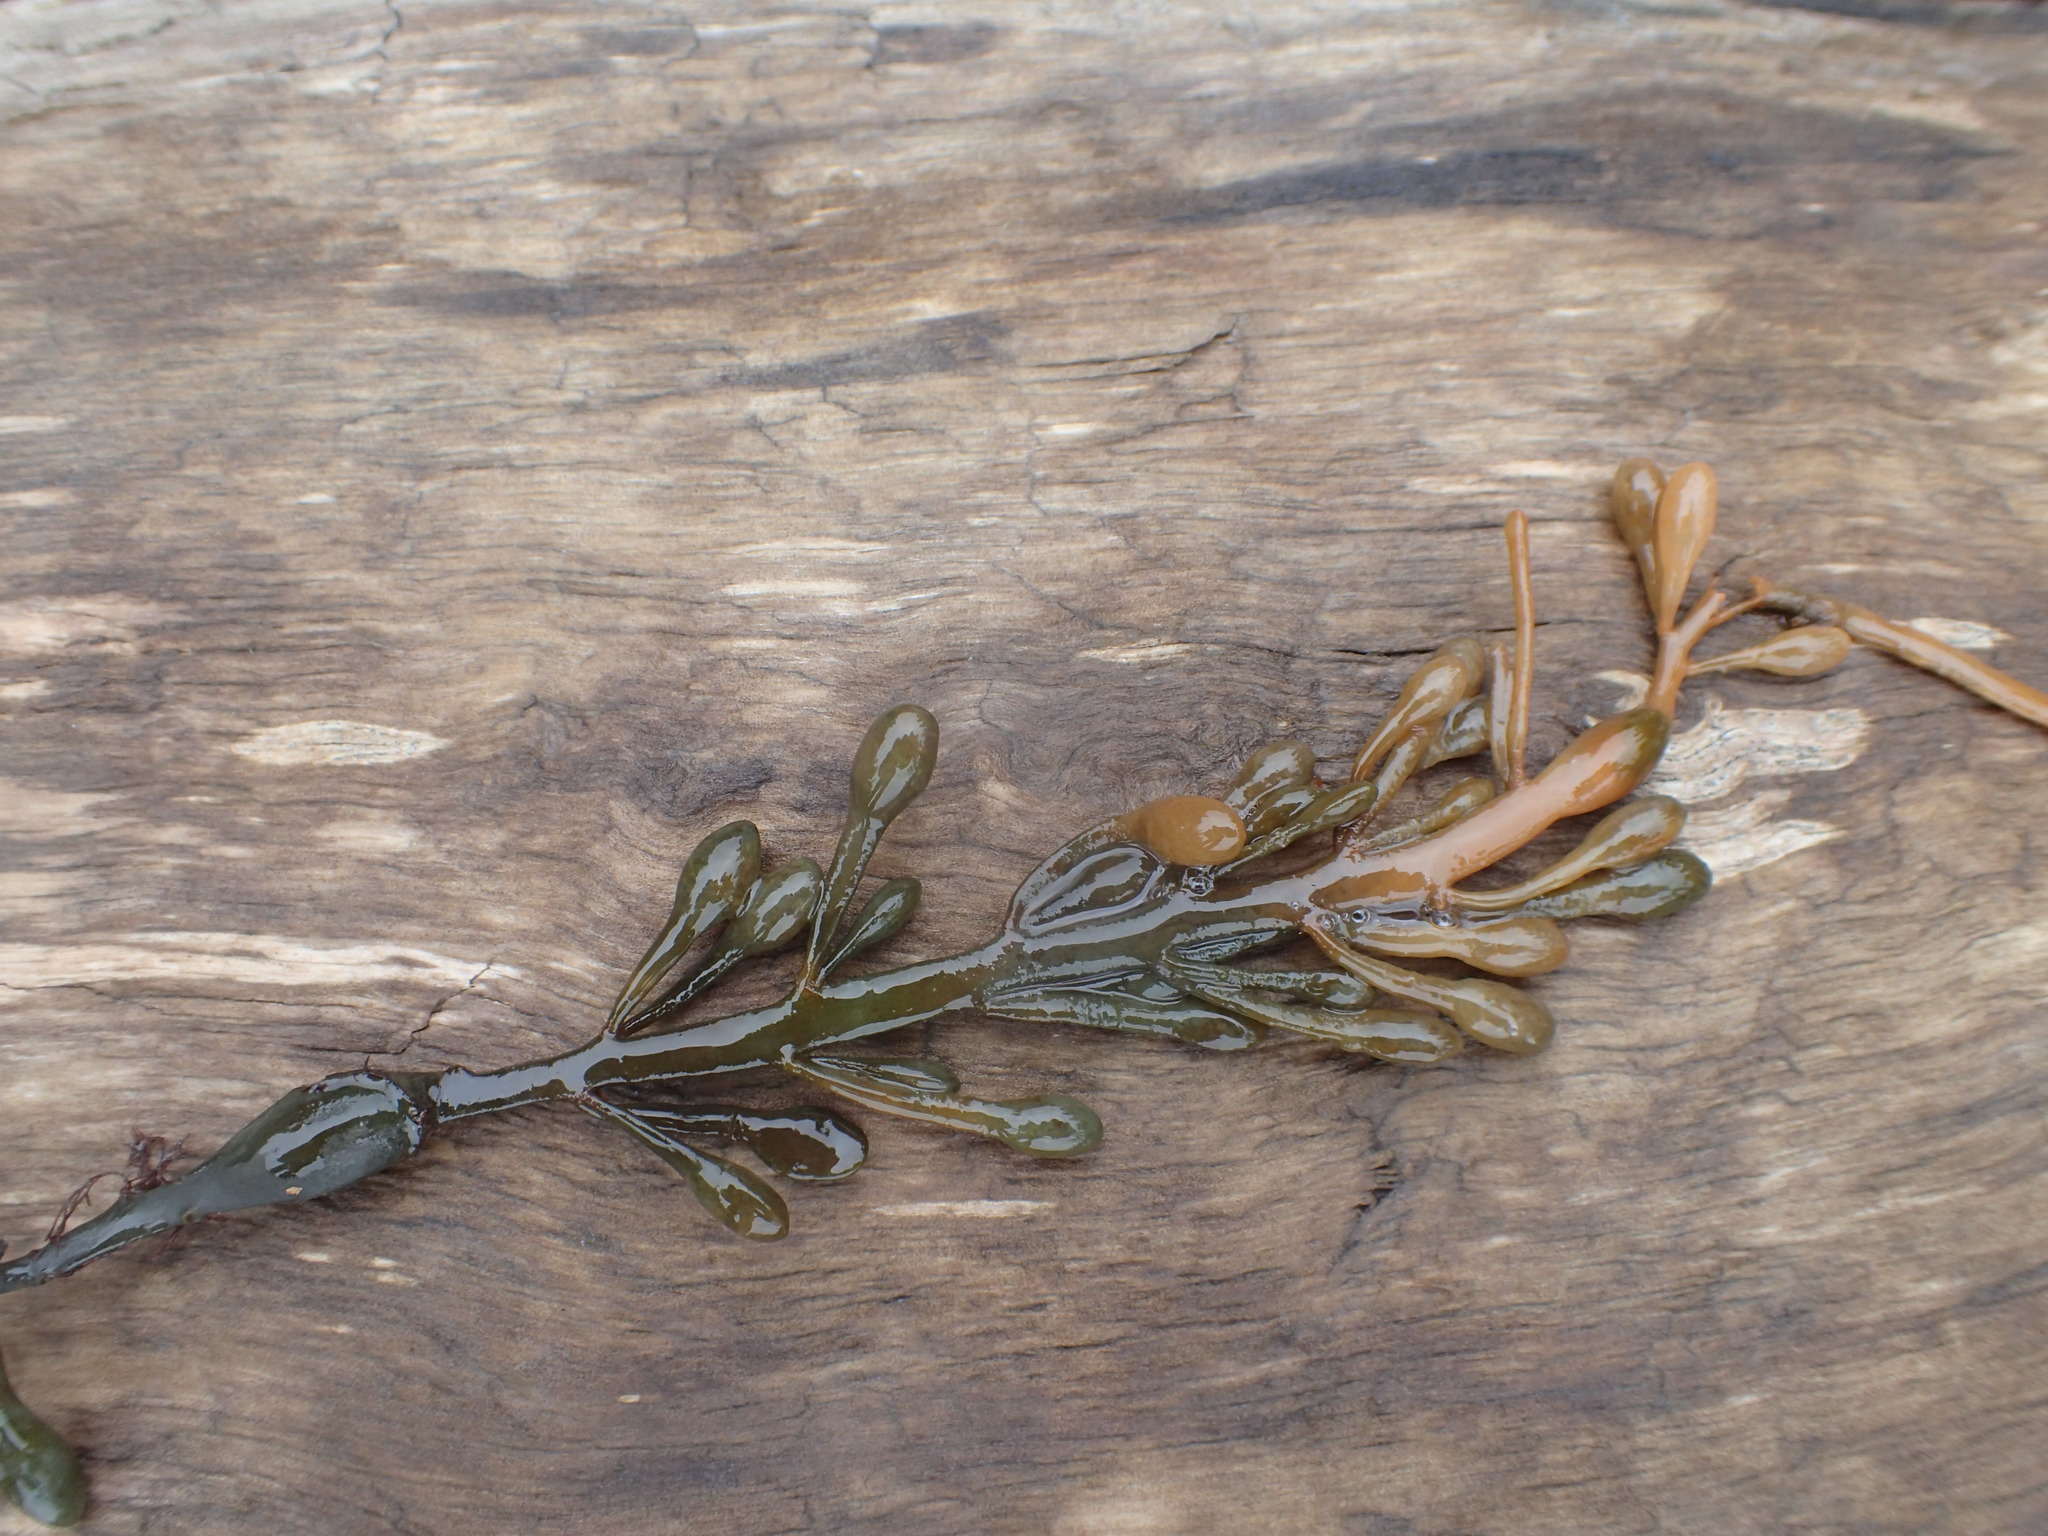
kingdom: Chromista
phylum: Ochrophyta
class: Phaeophyceae
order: Fucales
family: Fucaceae
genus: Ascophyllum
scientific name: Ascophyllum nodosum
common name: Knotted wrack
